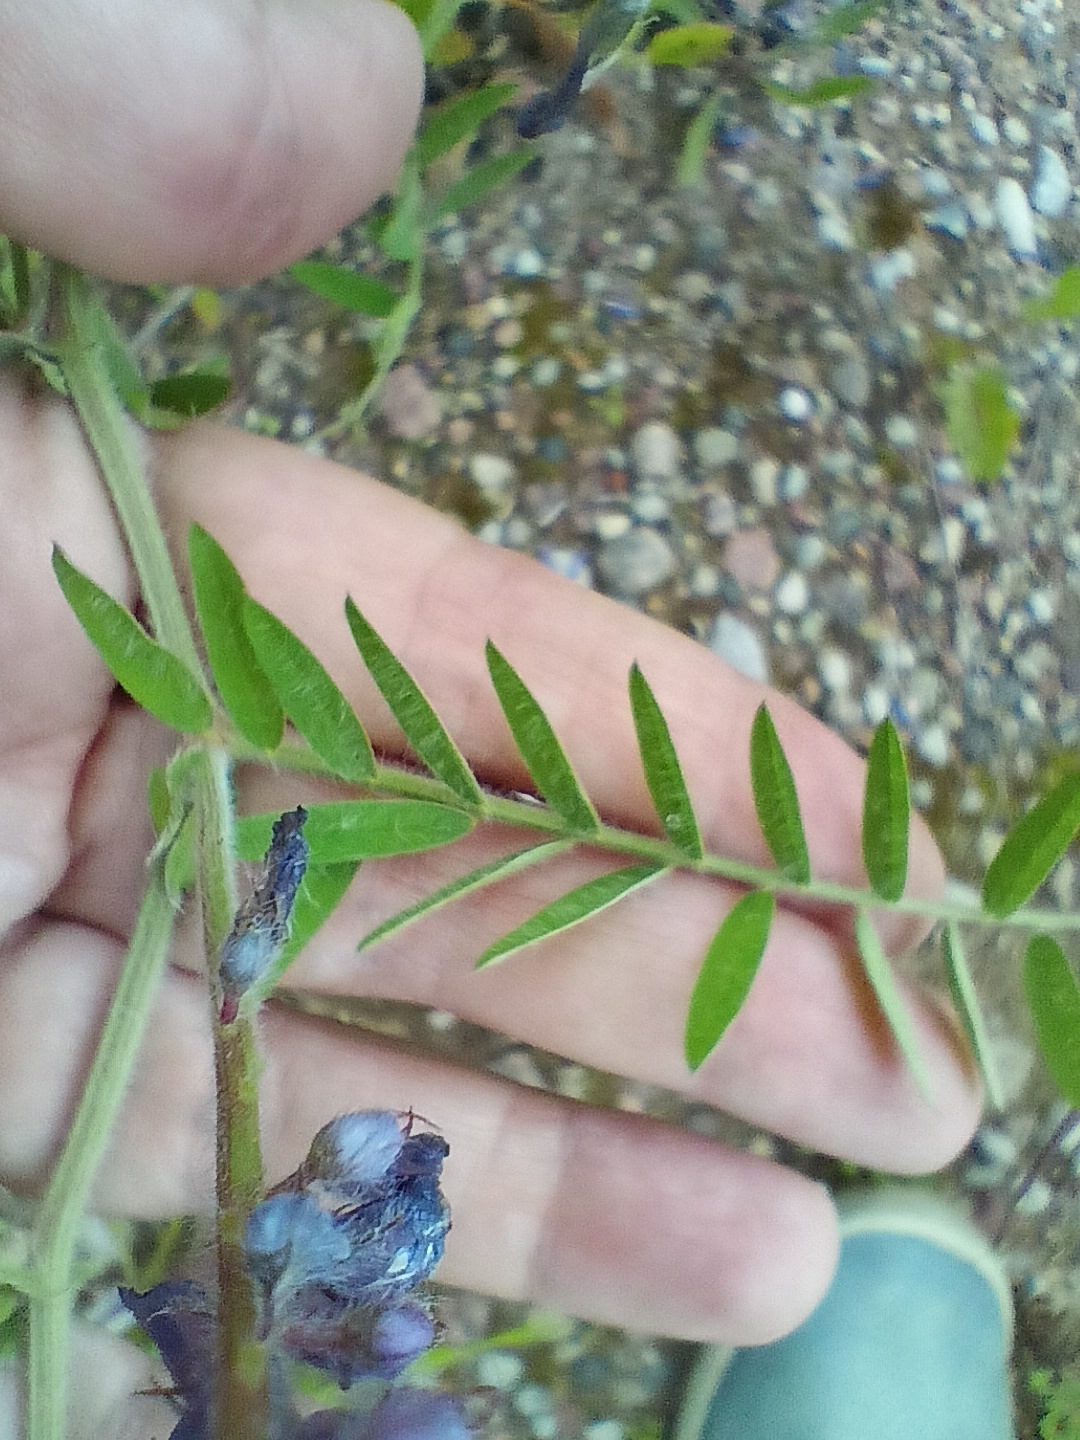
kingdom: Plantae
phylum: Tracheophyta
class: Magnoliopsida
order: Fabales
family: Fabaceae
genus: Vicia
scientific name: Vicia villosa
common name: Fodder vetch
